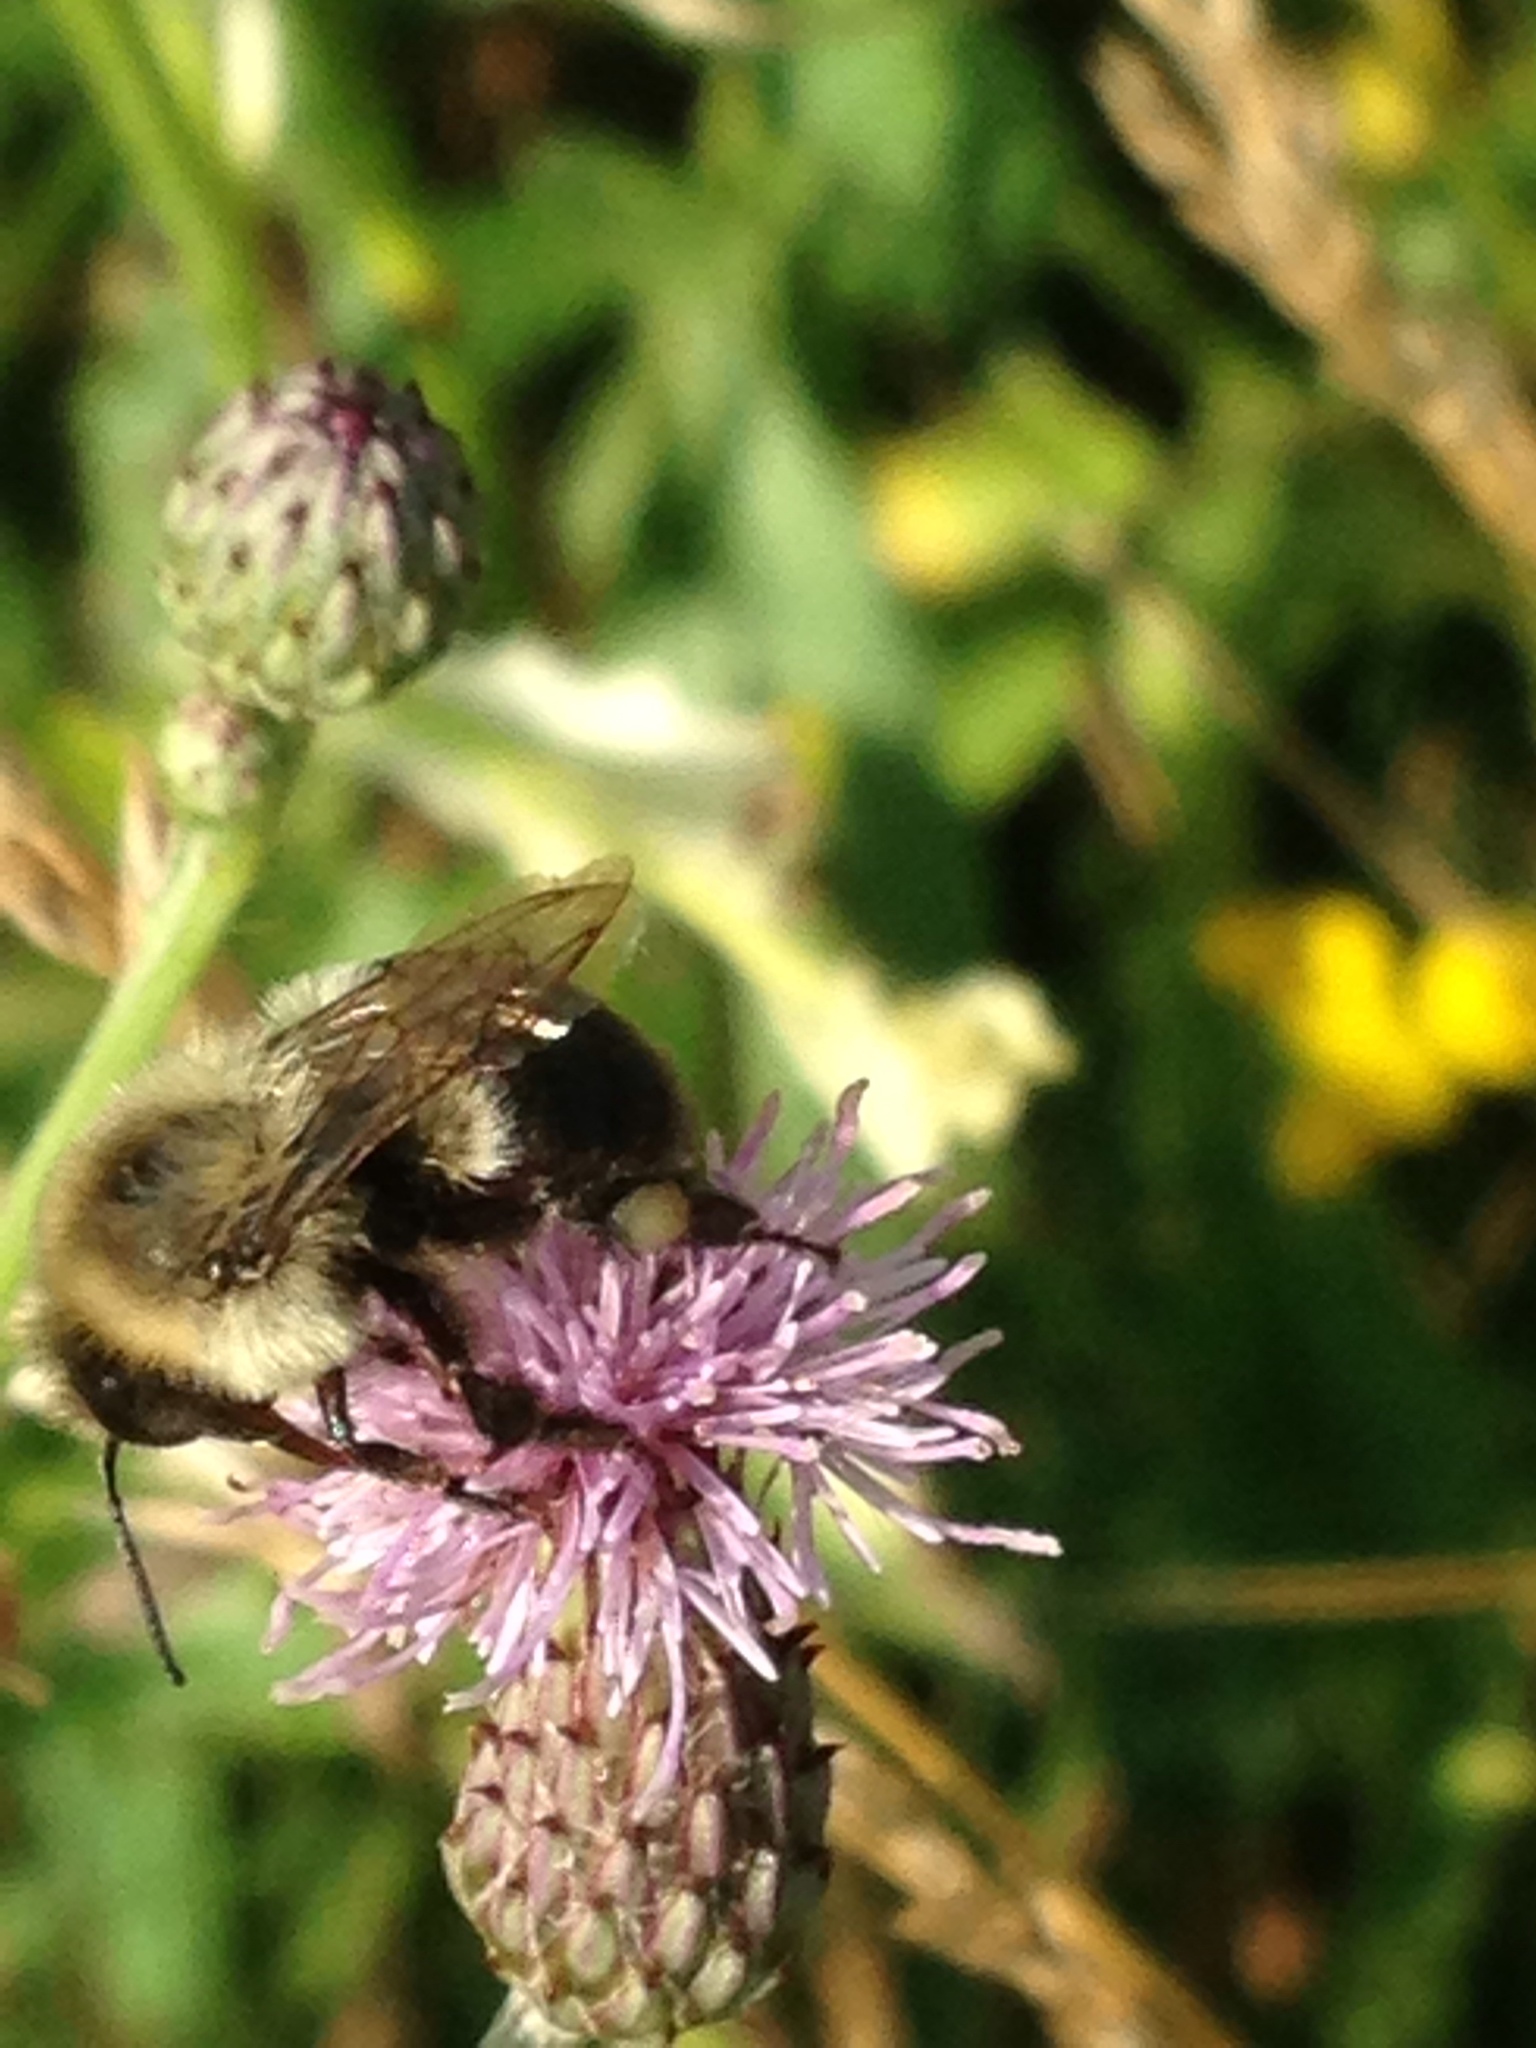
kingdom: Animalia
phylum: Arthropoda
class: Insecta
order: Hymenoptera
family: Apidae
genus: Bombus
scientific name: Bombus impatiens
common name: Common eastern bumble bee
